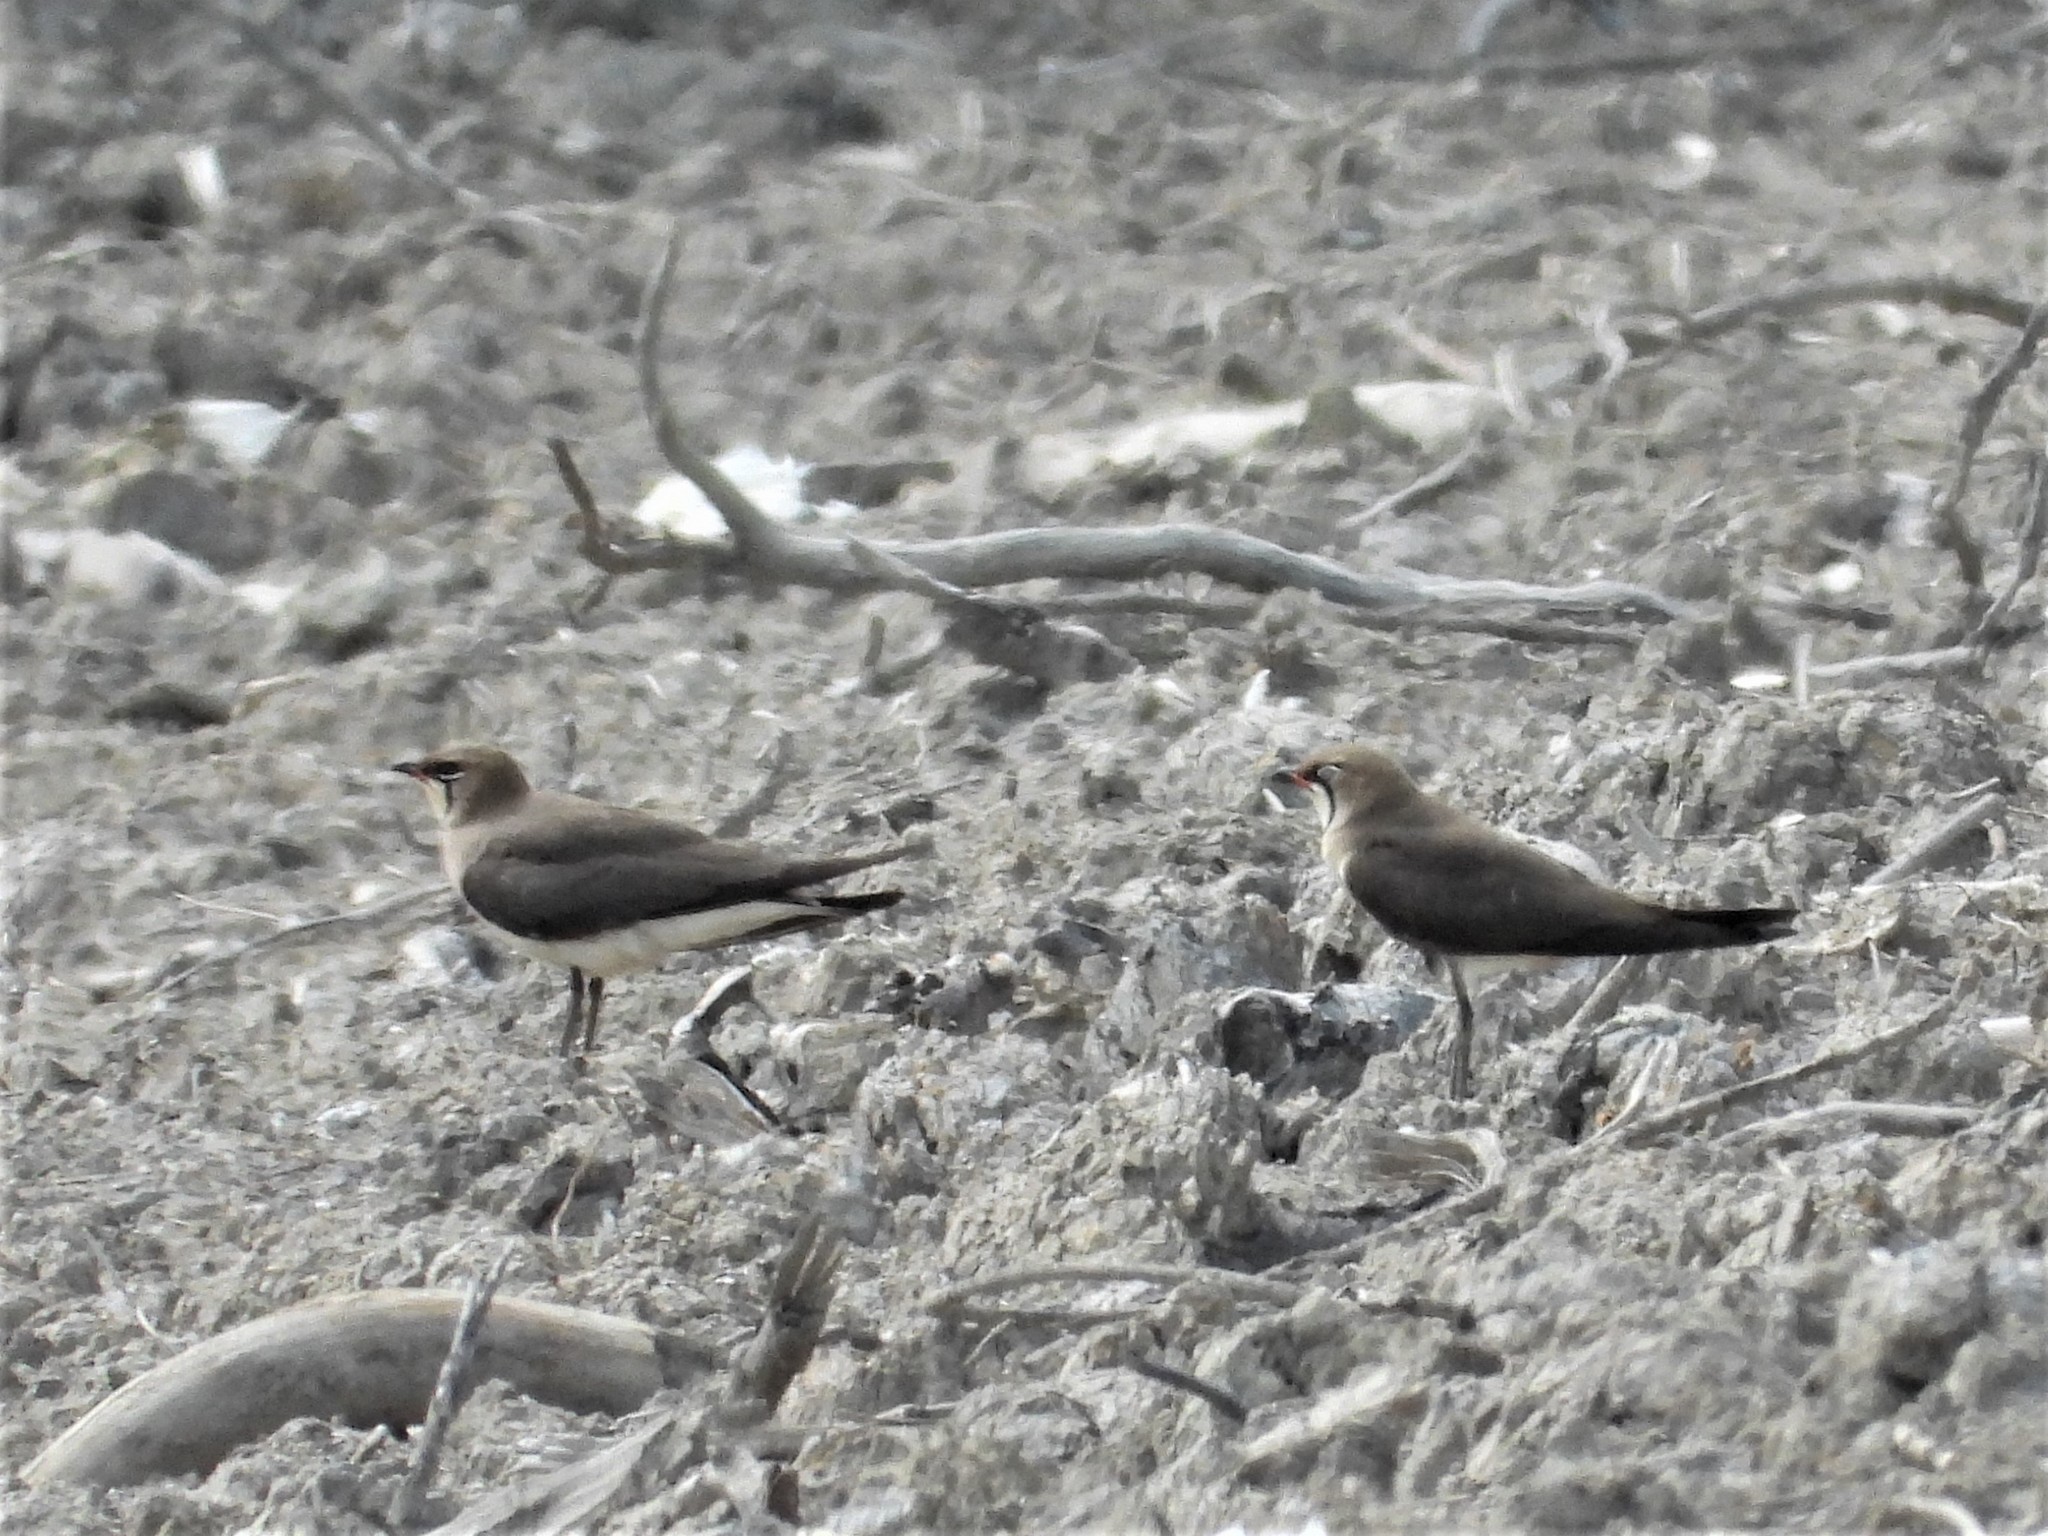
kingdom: Animalia
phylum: Chordata
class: Aves
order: Charadriiformes
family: Glareolidae
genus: Glareola
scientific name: Glareola maldivarum
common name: Oriental pratincole
